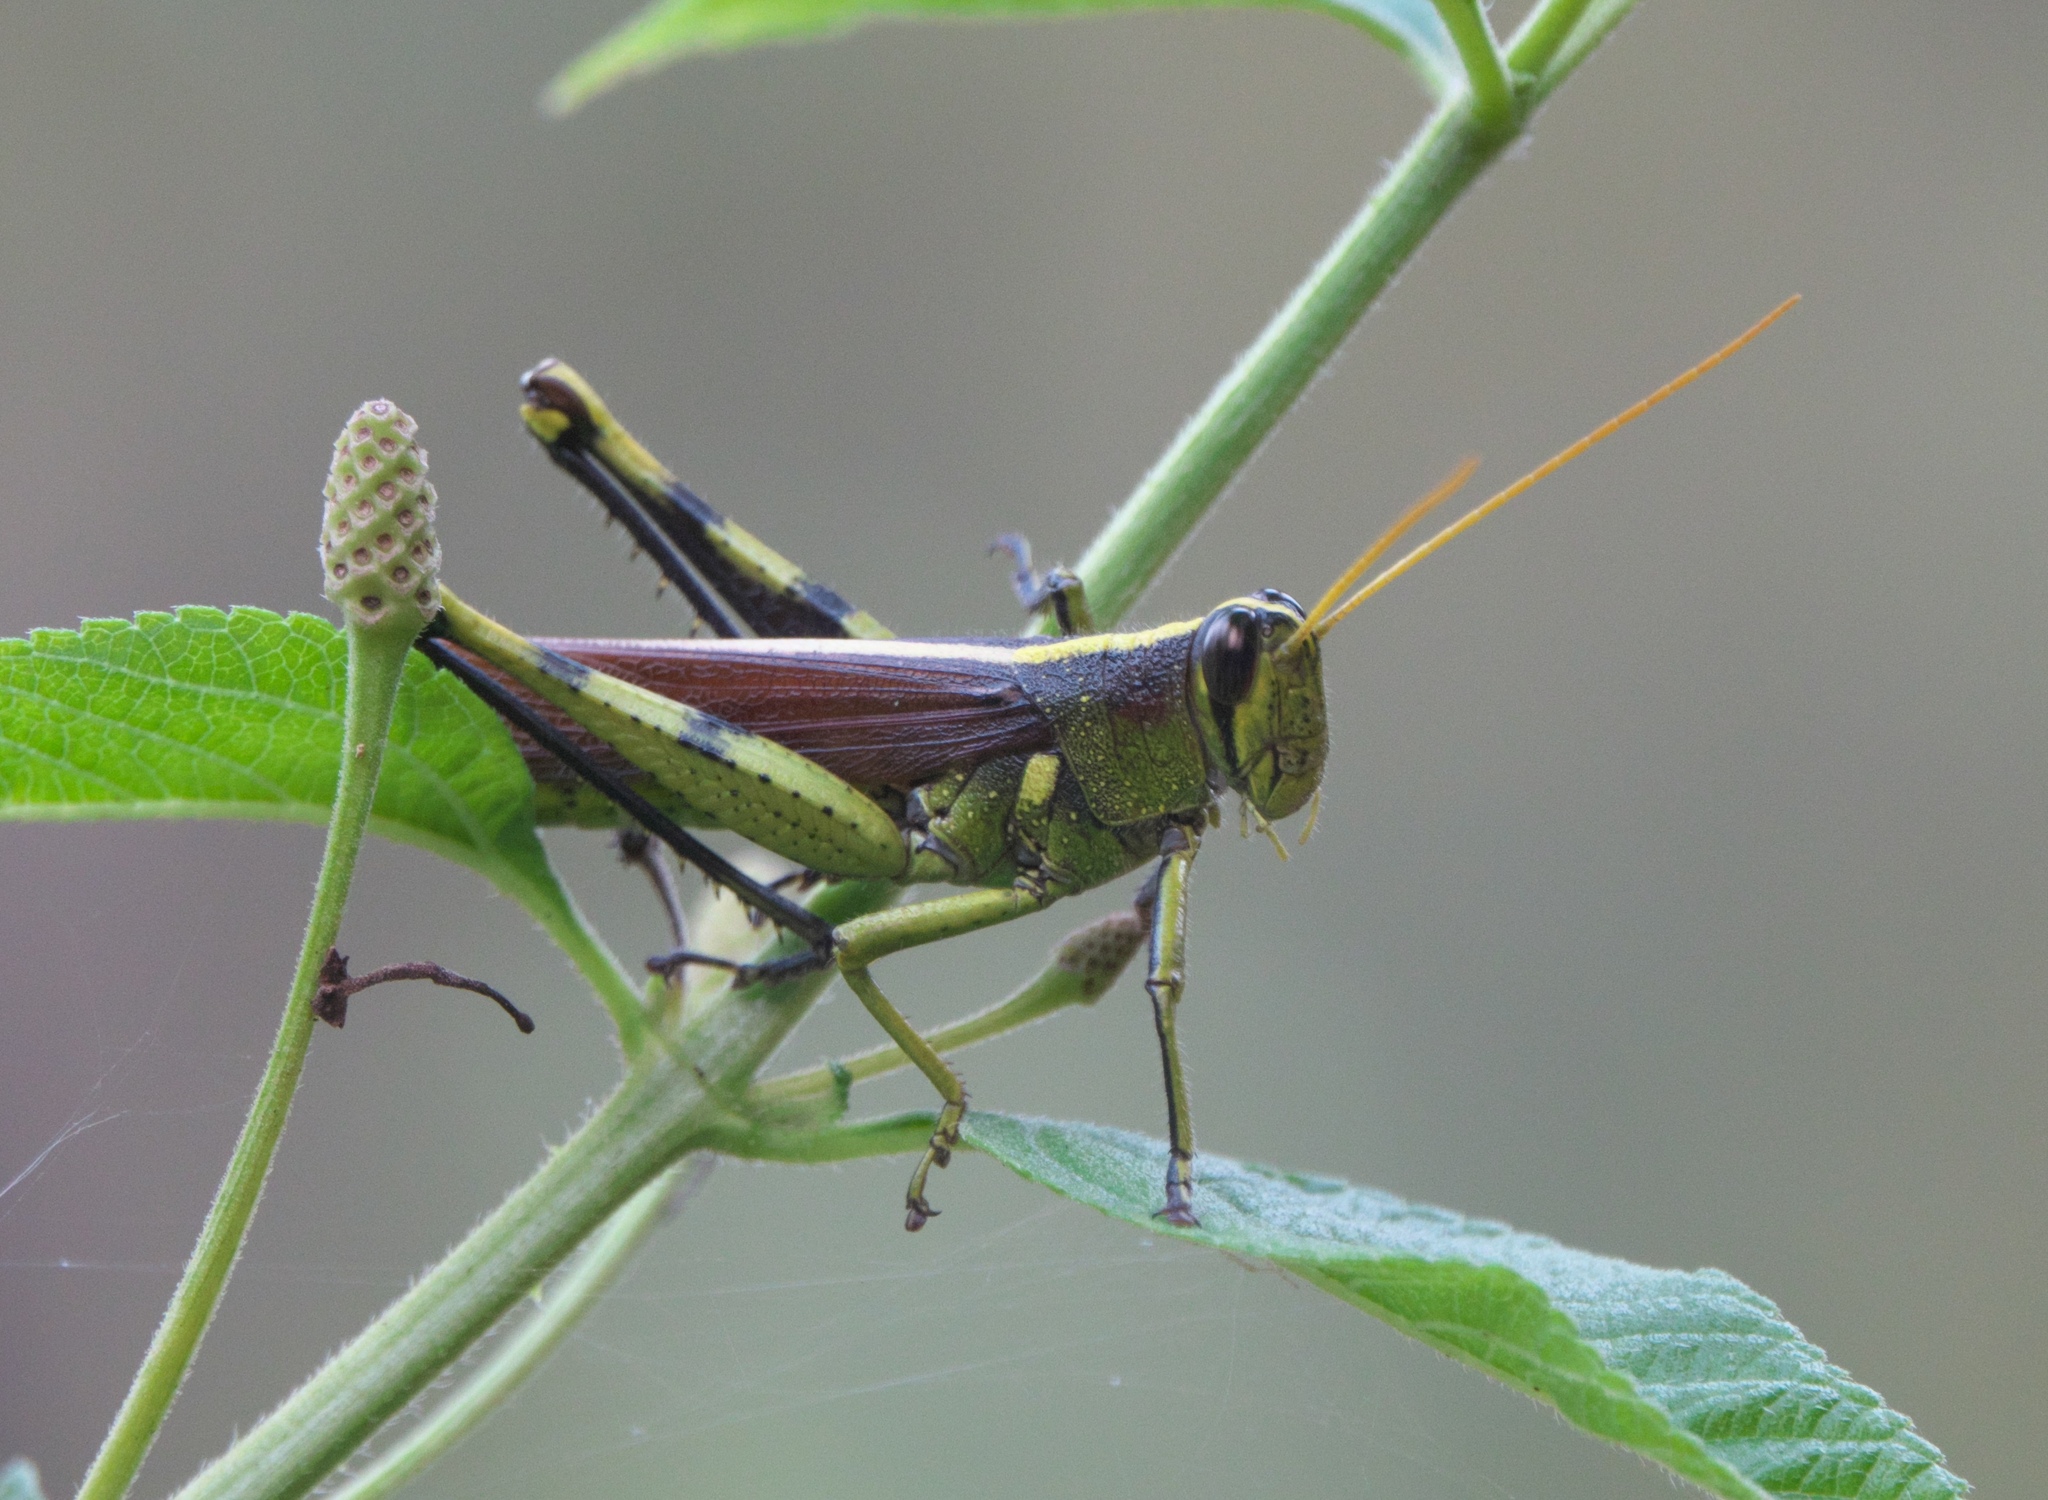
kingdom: Animalia
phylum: Arthropoda
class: Insecta
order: Orthoptera
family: Acrididae
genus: Schistocerca
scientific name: Schistocerca obscura
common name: Obscure bird grasshopper
